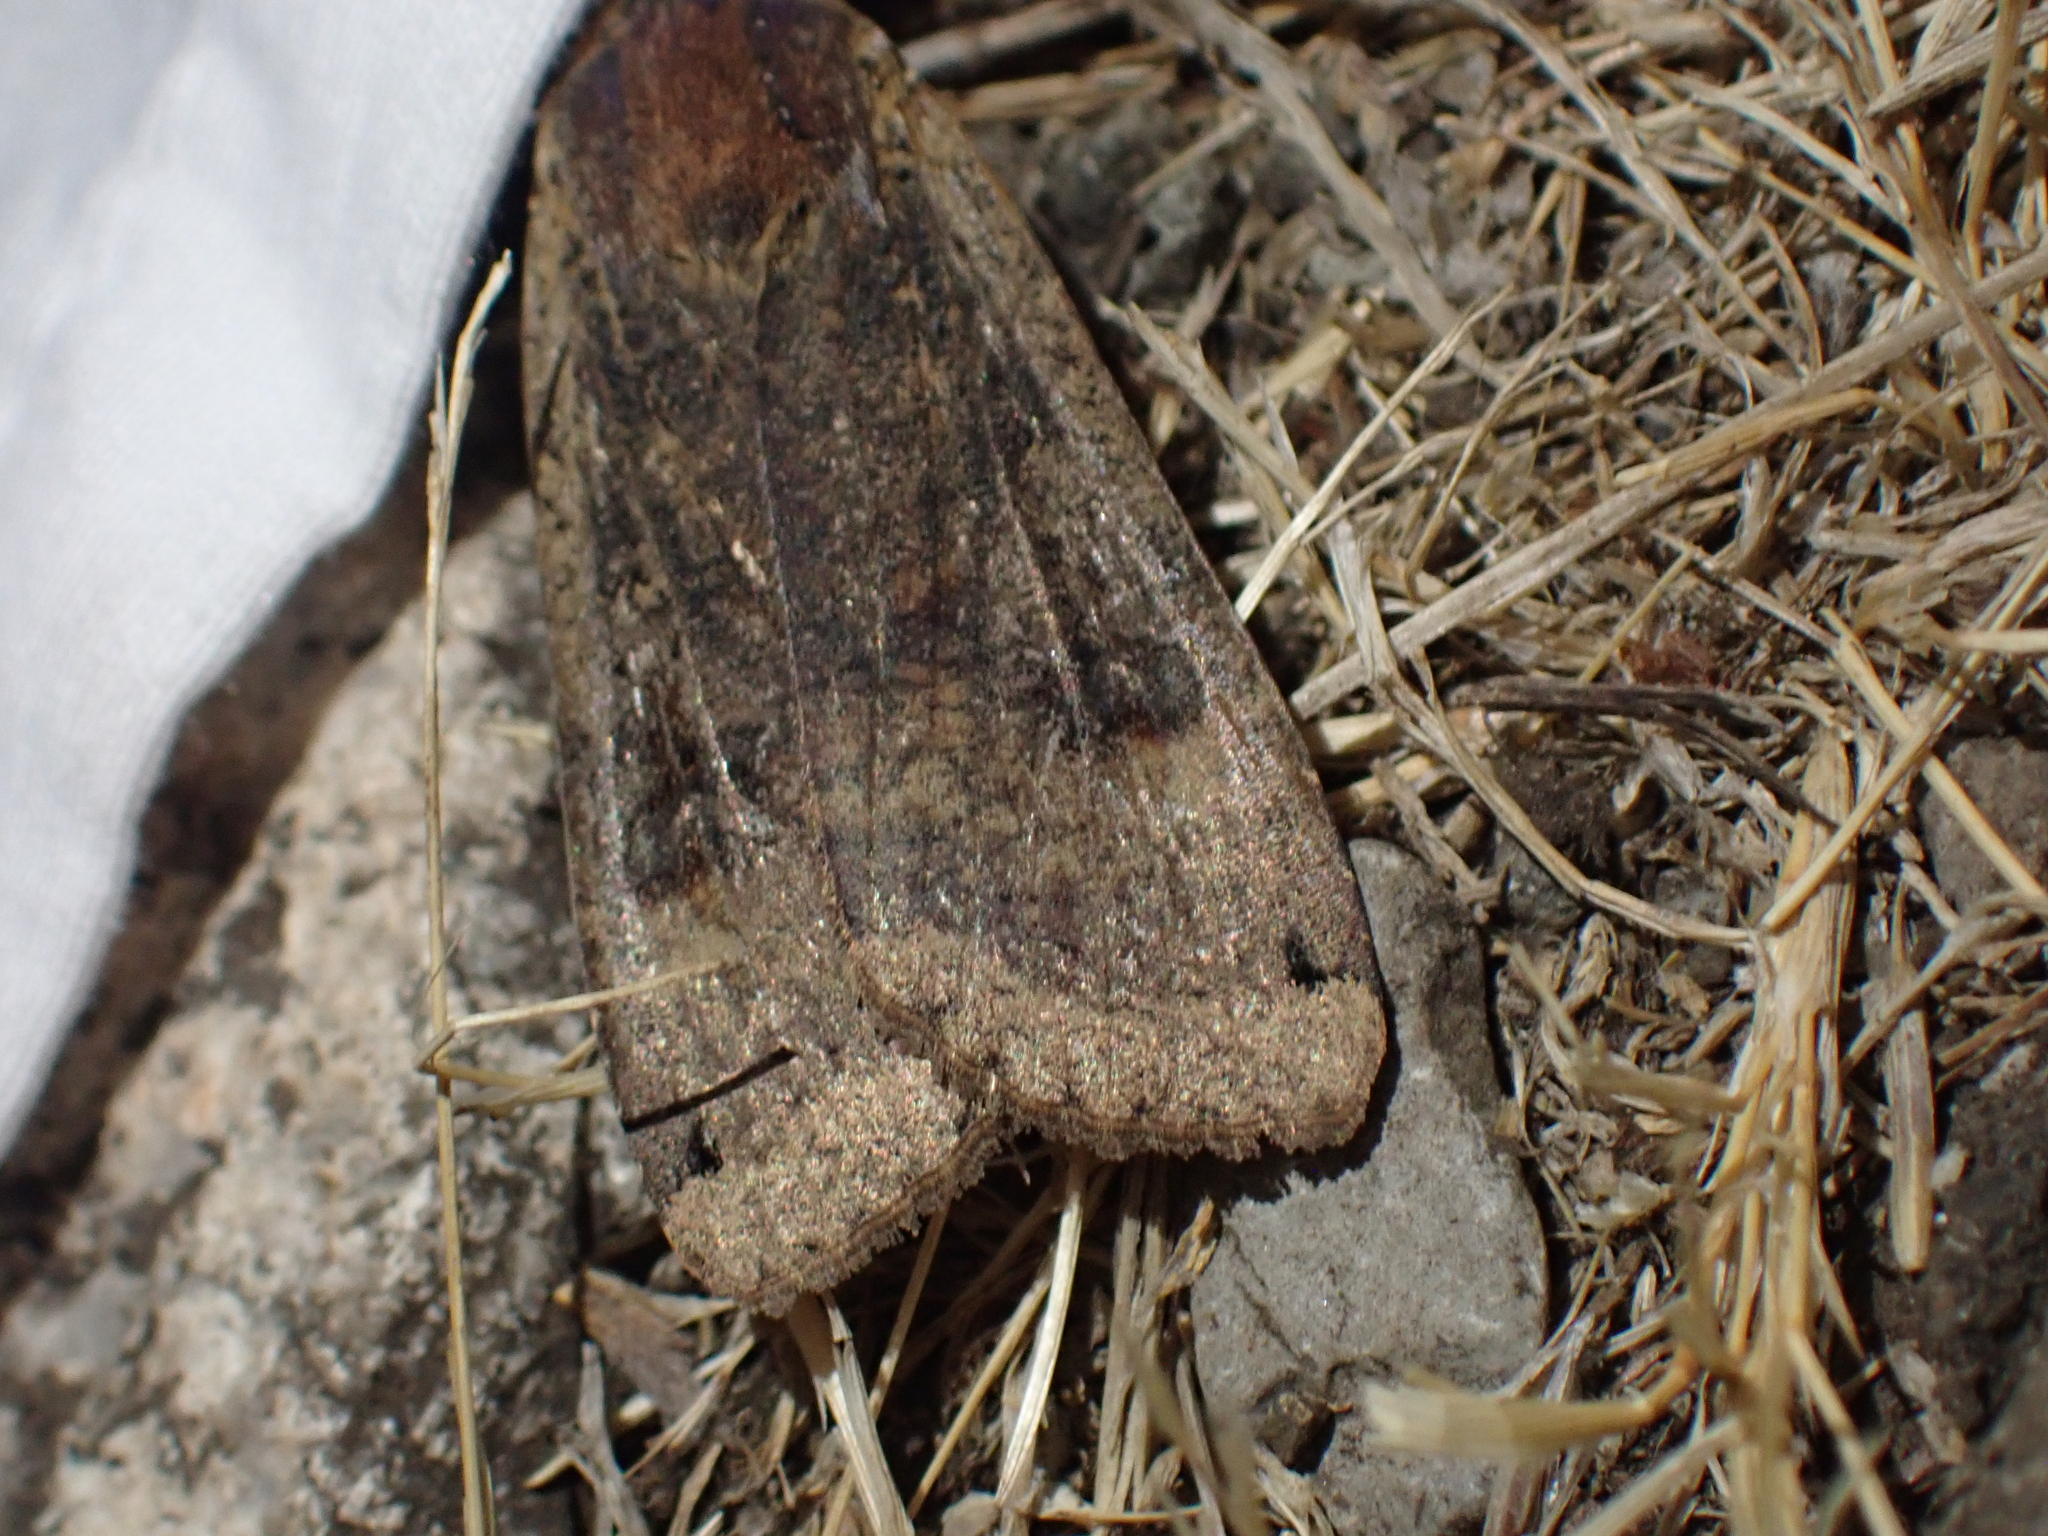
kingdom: Animalia
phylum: Arthropoda
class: Insecta
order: Lepidoptera
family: Noctuidae
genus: Noctua
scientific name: Noctua pronuba
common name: Large yellow underwing
